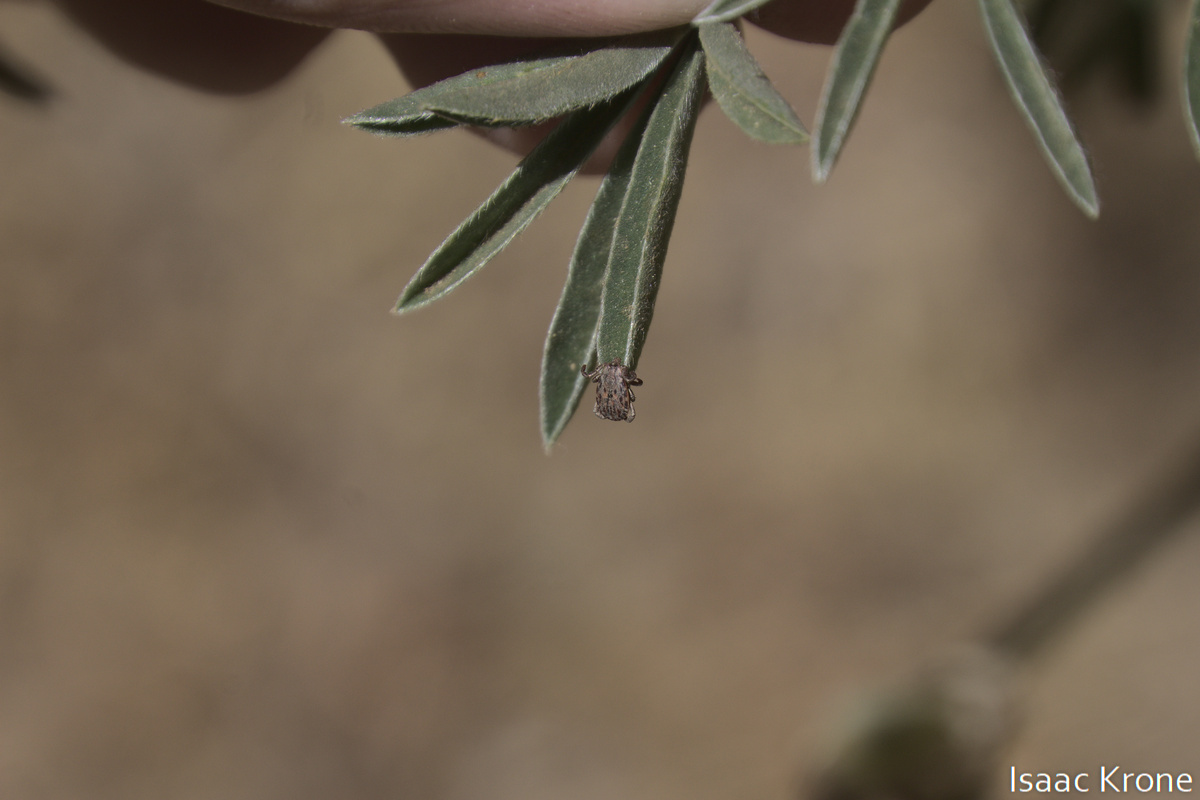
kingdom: Animalia
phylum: Arthropoda
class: Arachnida
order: Ixodida
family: Ixodidae
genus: Dermacentor
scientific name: Dermacentor occidentalis
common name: Net tick
